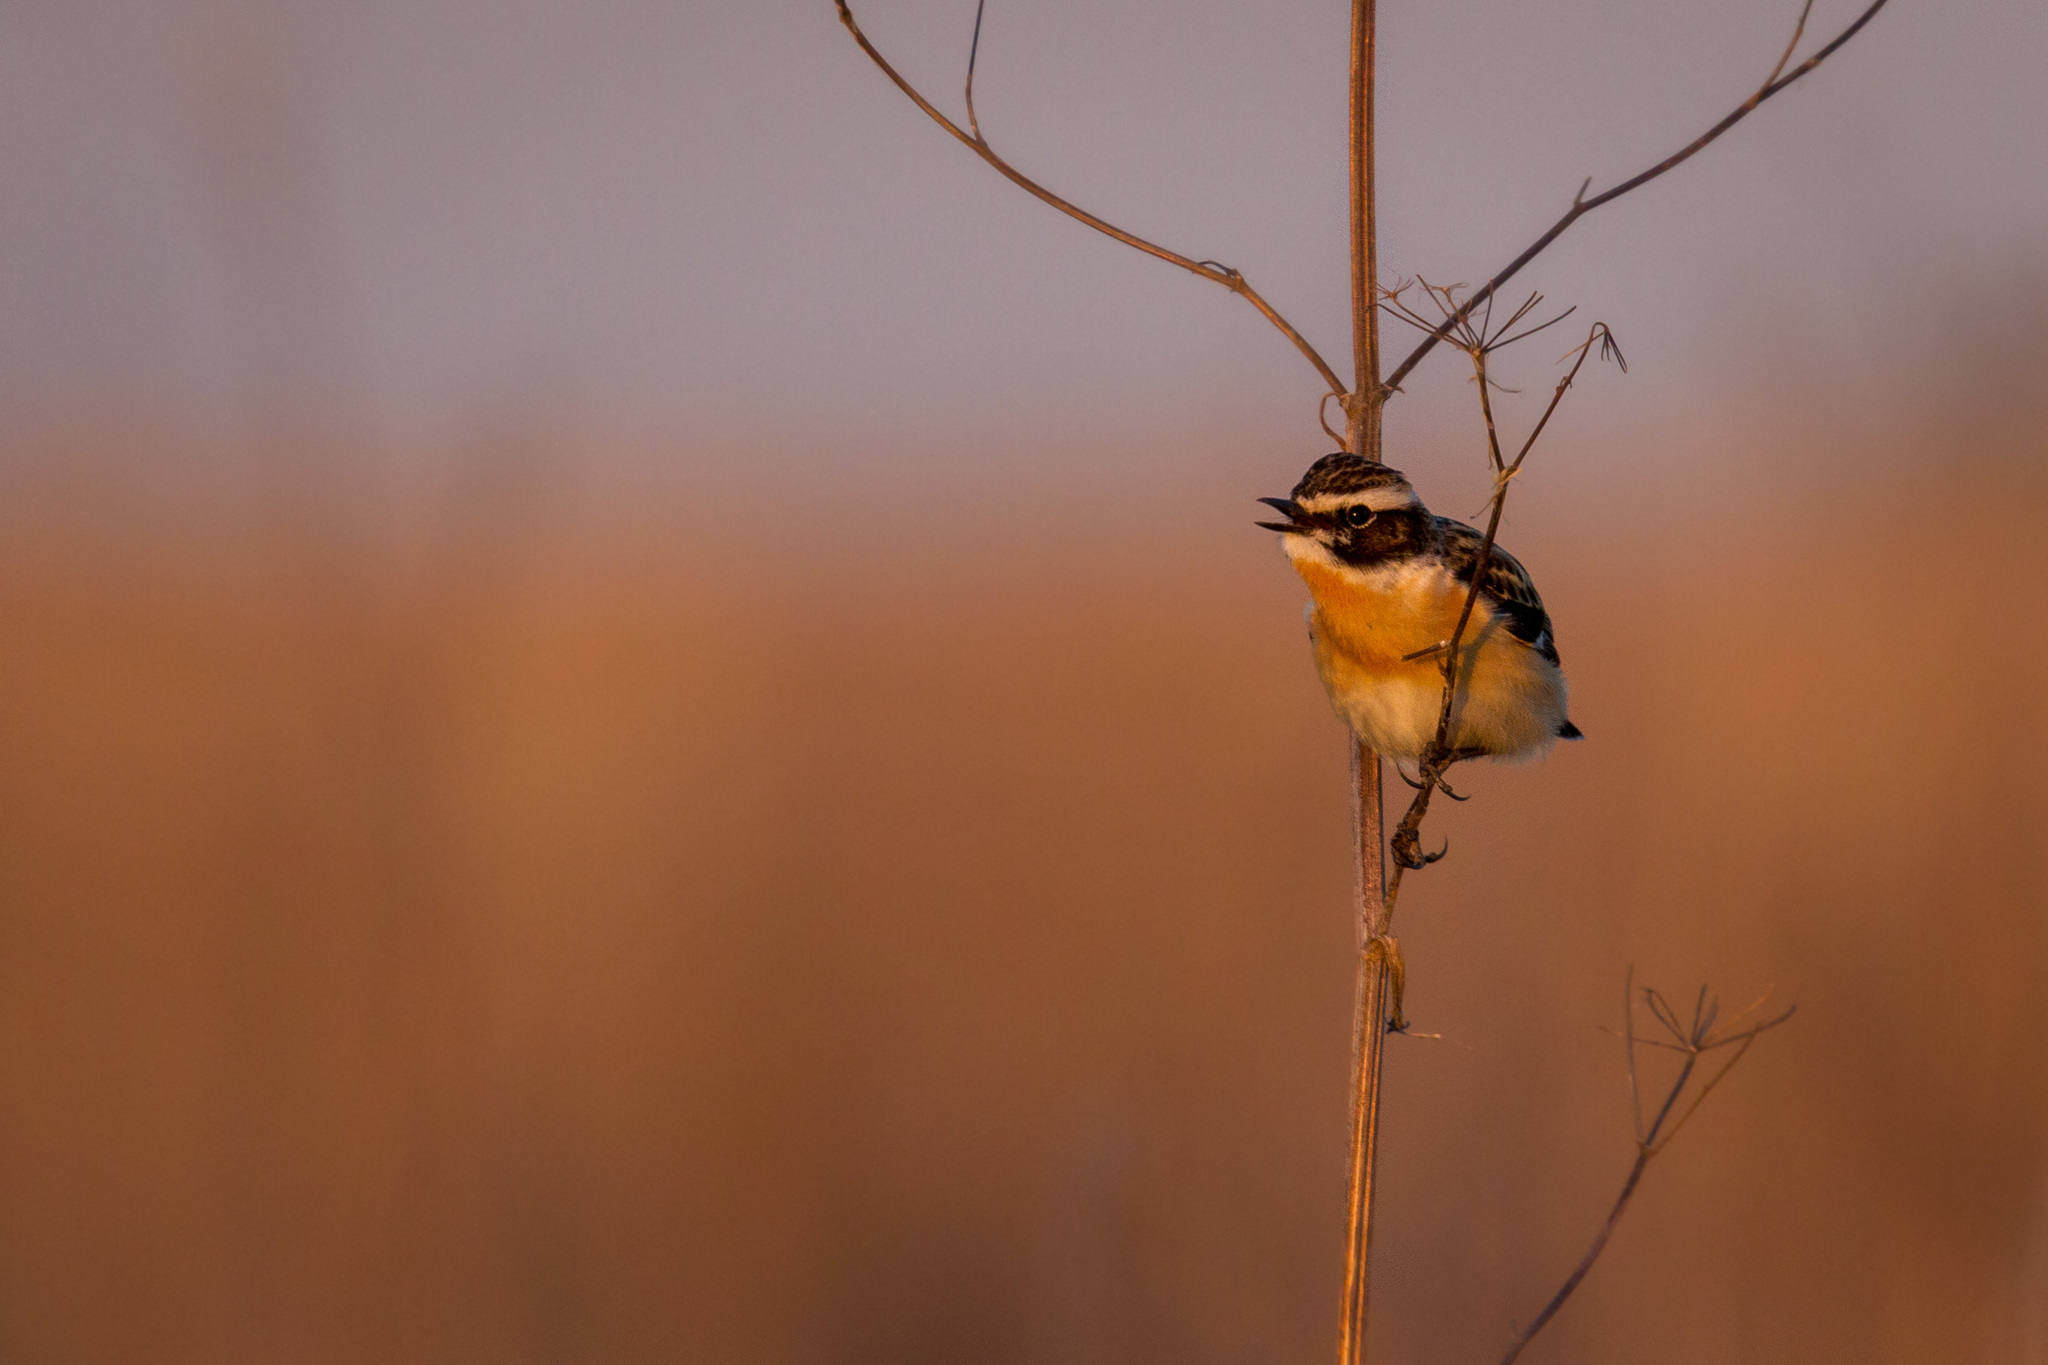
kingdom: Animalia
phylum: Chordata
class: Aves
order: Passeriformes
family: Muscicapidae
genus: Saxicola
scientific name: Saxicola rubetra
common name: Whinchat
